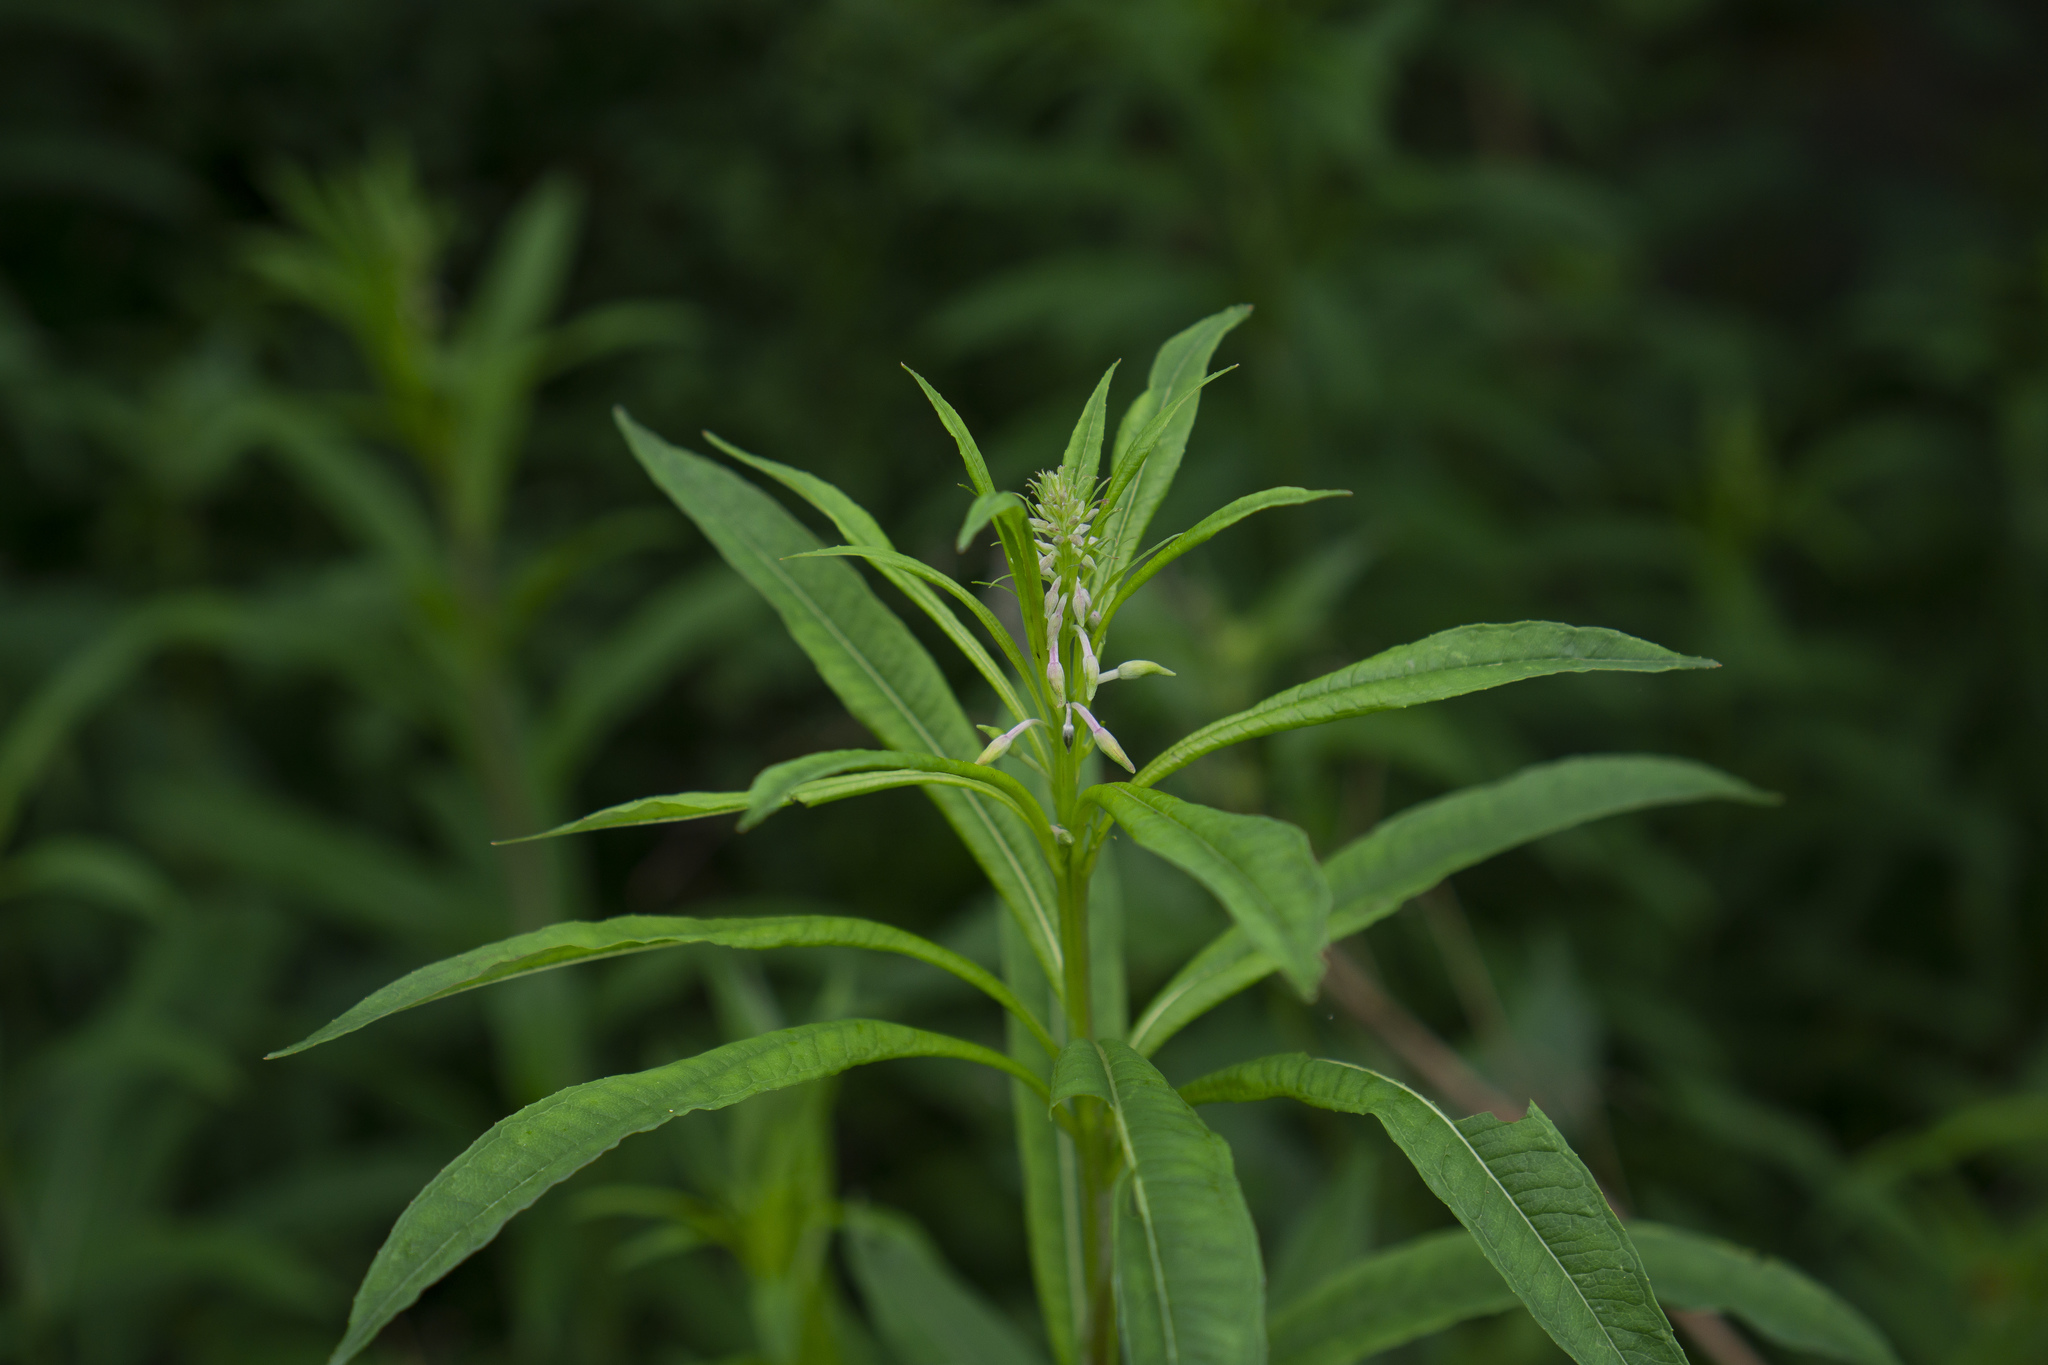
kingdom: Plantae
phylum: Tracheophyta
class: Magnoliopsida
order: Myrtales
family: Onagraceae
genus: Chamaenerion
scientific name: Chamaenerion angustifolium
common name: Fireweed
